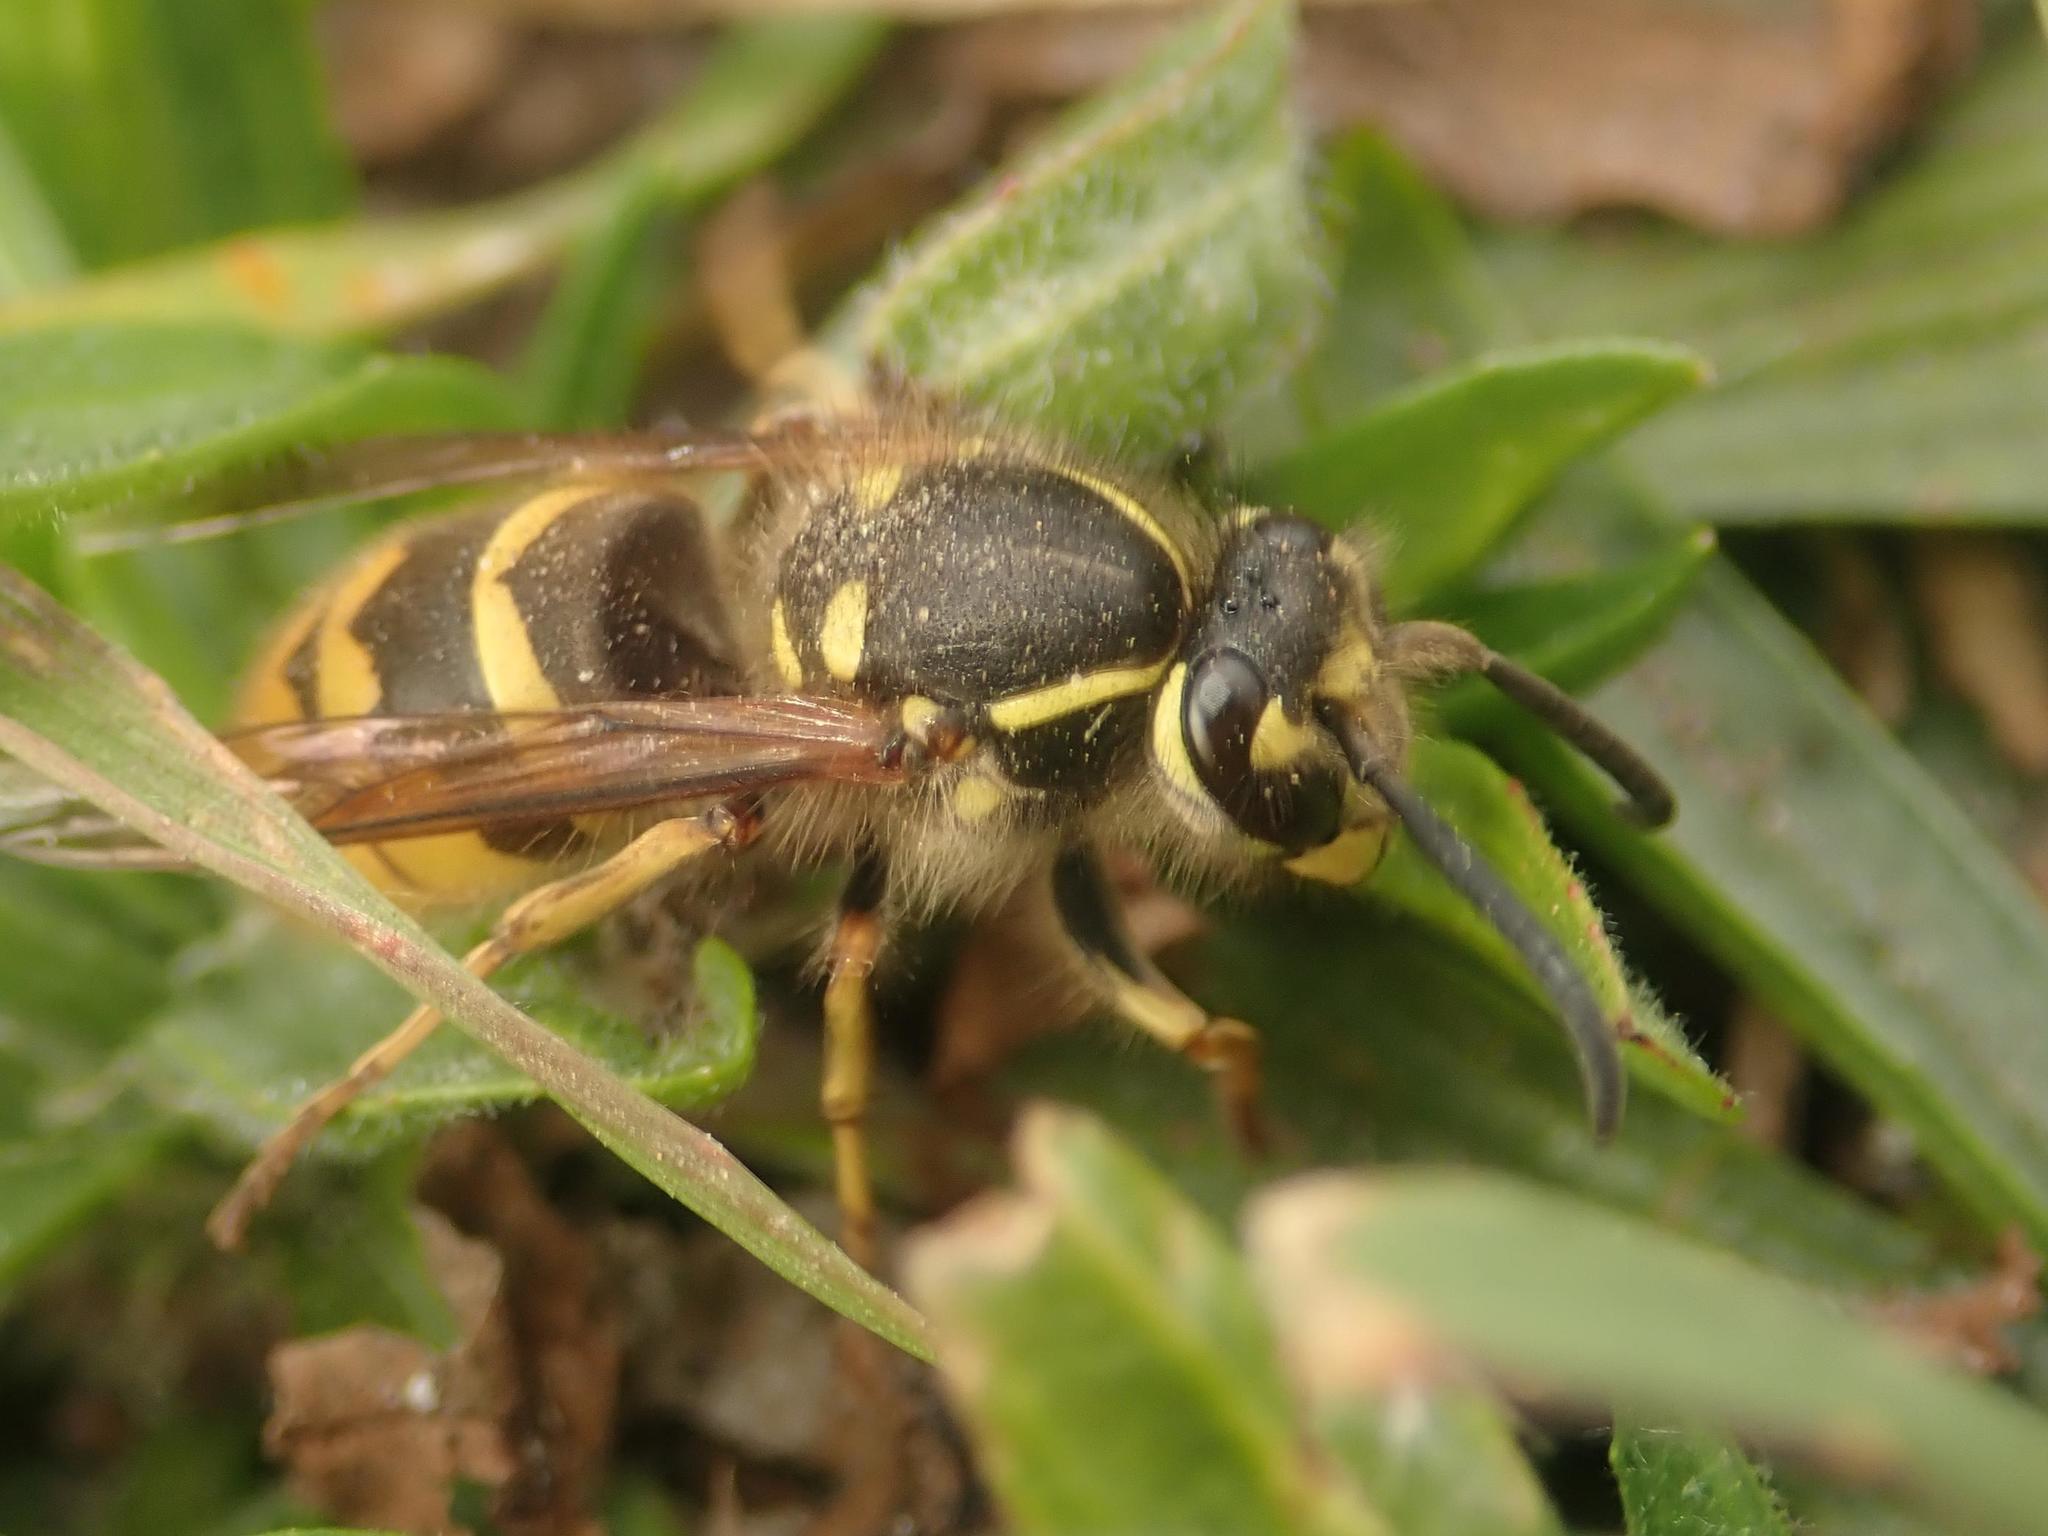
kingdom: Animalia
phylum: Arthropoda
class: Insecta
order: Hymenoptera
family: Vespidae
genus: Vespula
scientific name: Vespula vulgaris
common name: Common wasp
